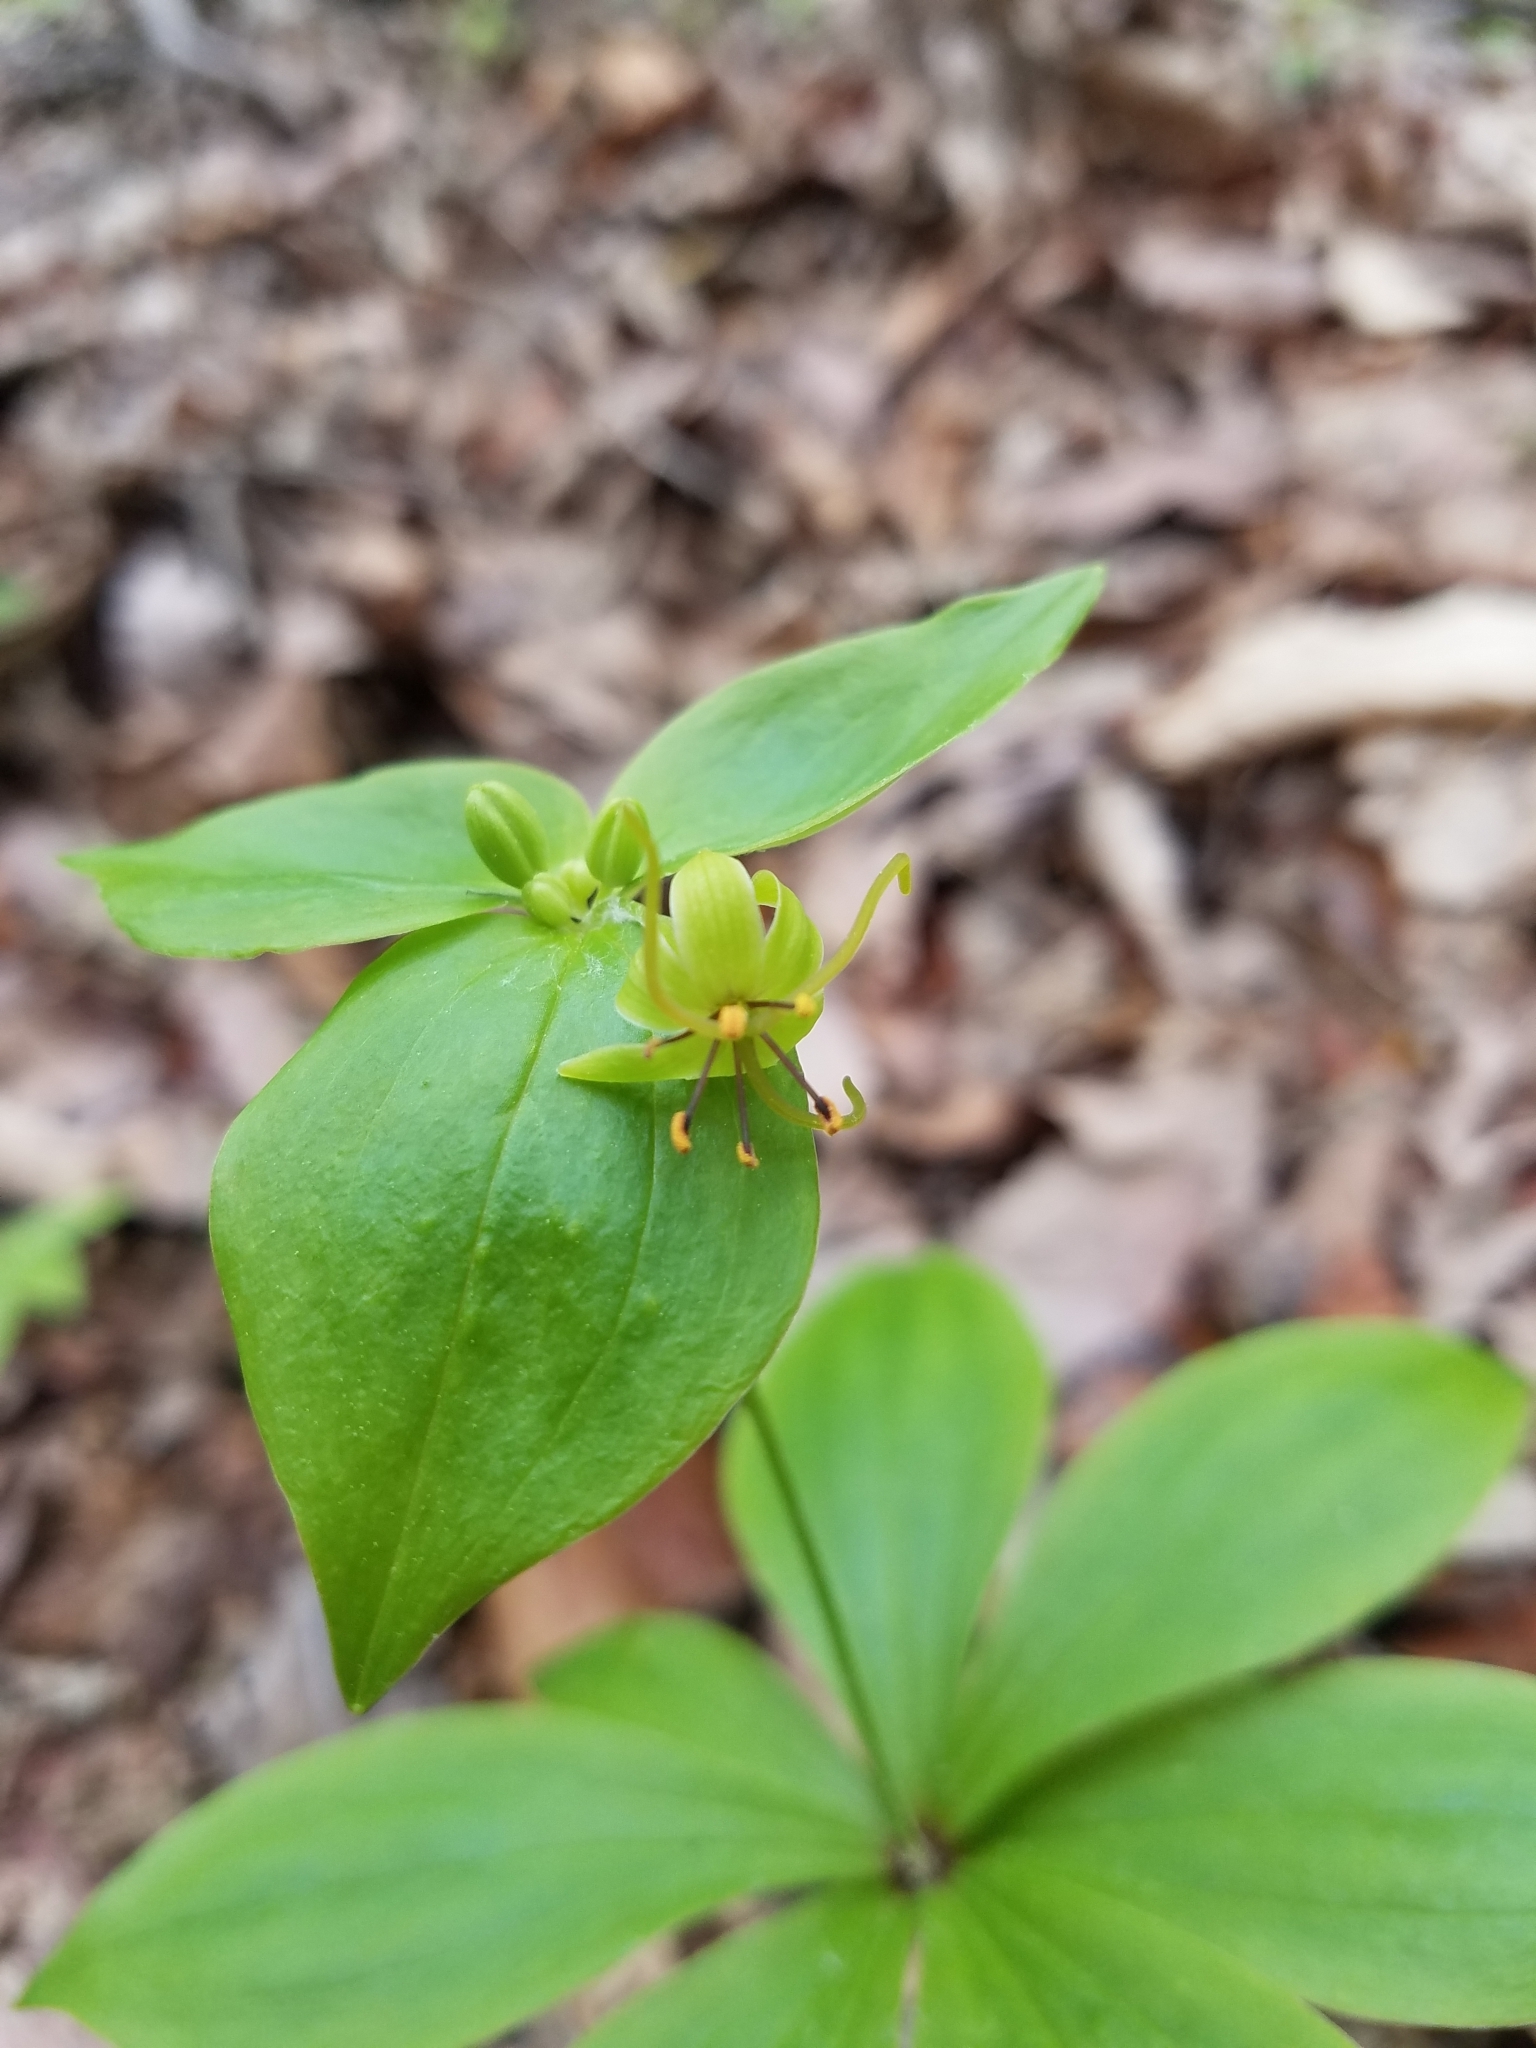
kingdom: Plantae
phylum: Tracheophyta
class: Liliopsida
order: Liliales
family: Liliaceae
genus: Medeola
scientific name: Medeola virginiana
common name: Indian cucumber-root
